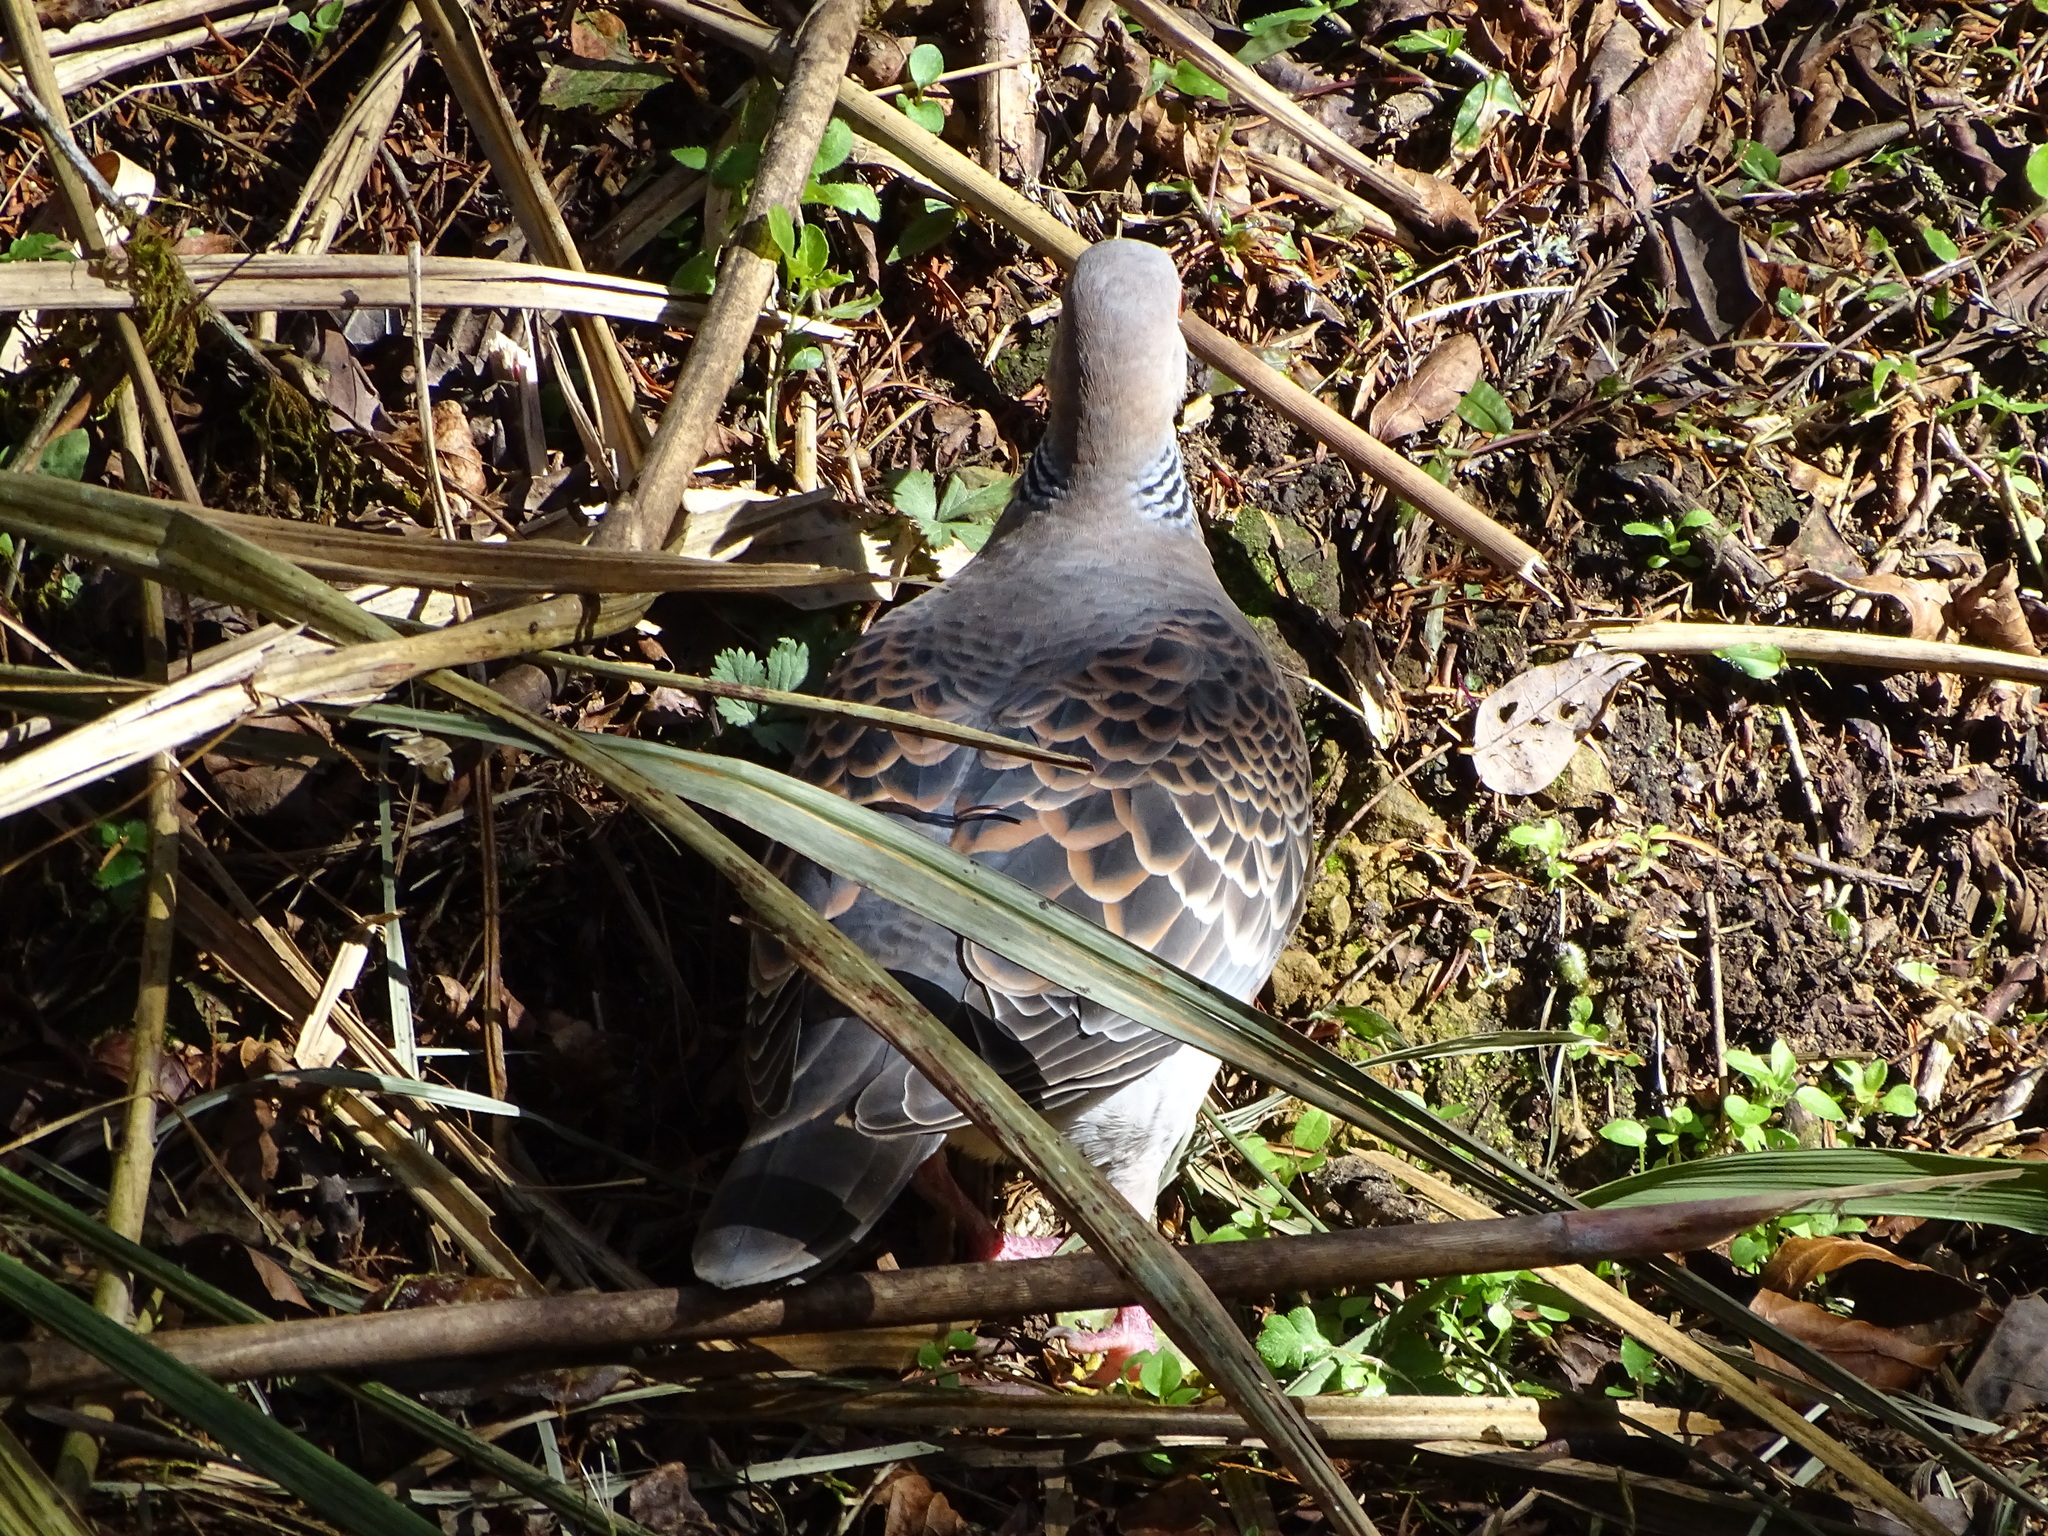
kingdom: Animalia
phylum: Chordata
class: Aves
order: Columbiformes
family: Columbidae
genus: Streptopelia
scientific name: Streptopelia orientalis
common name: Oriental turtle dove
